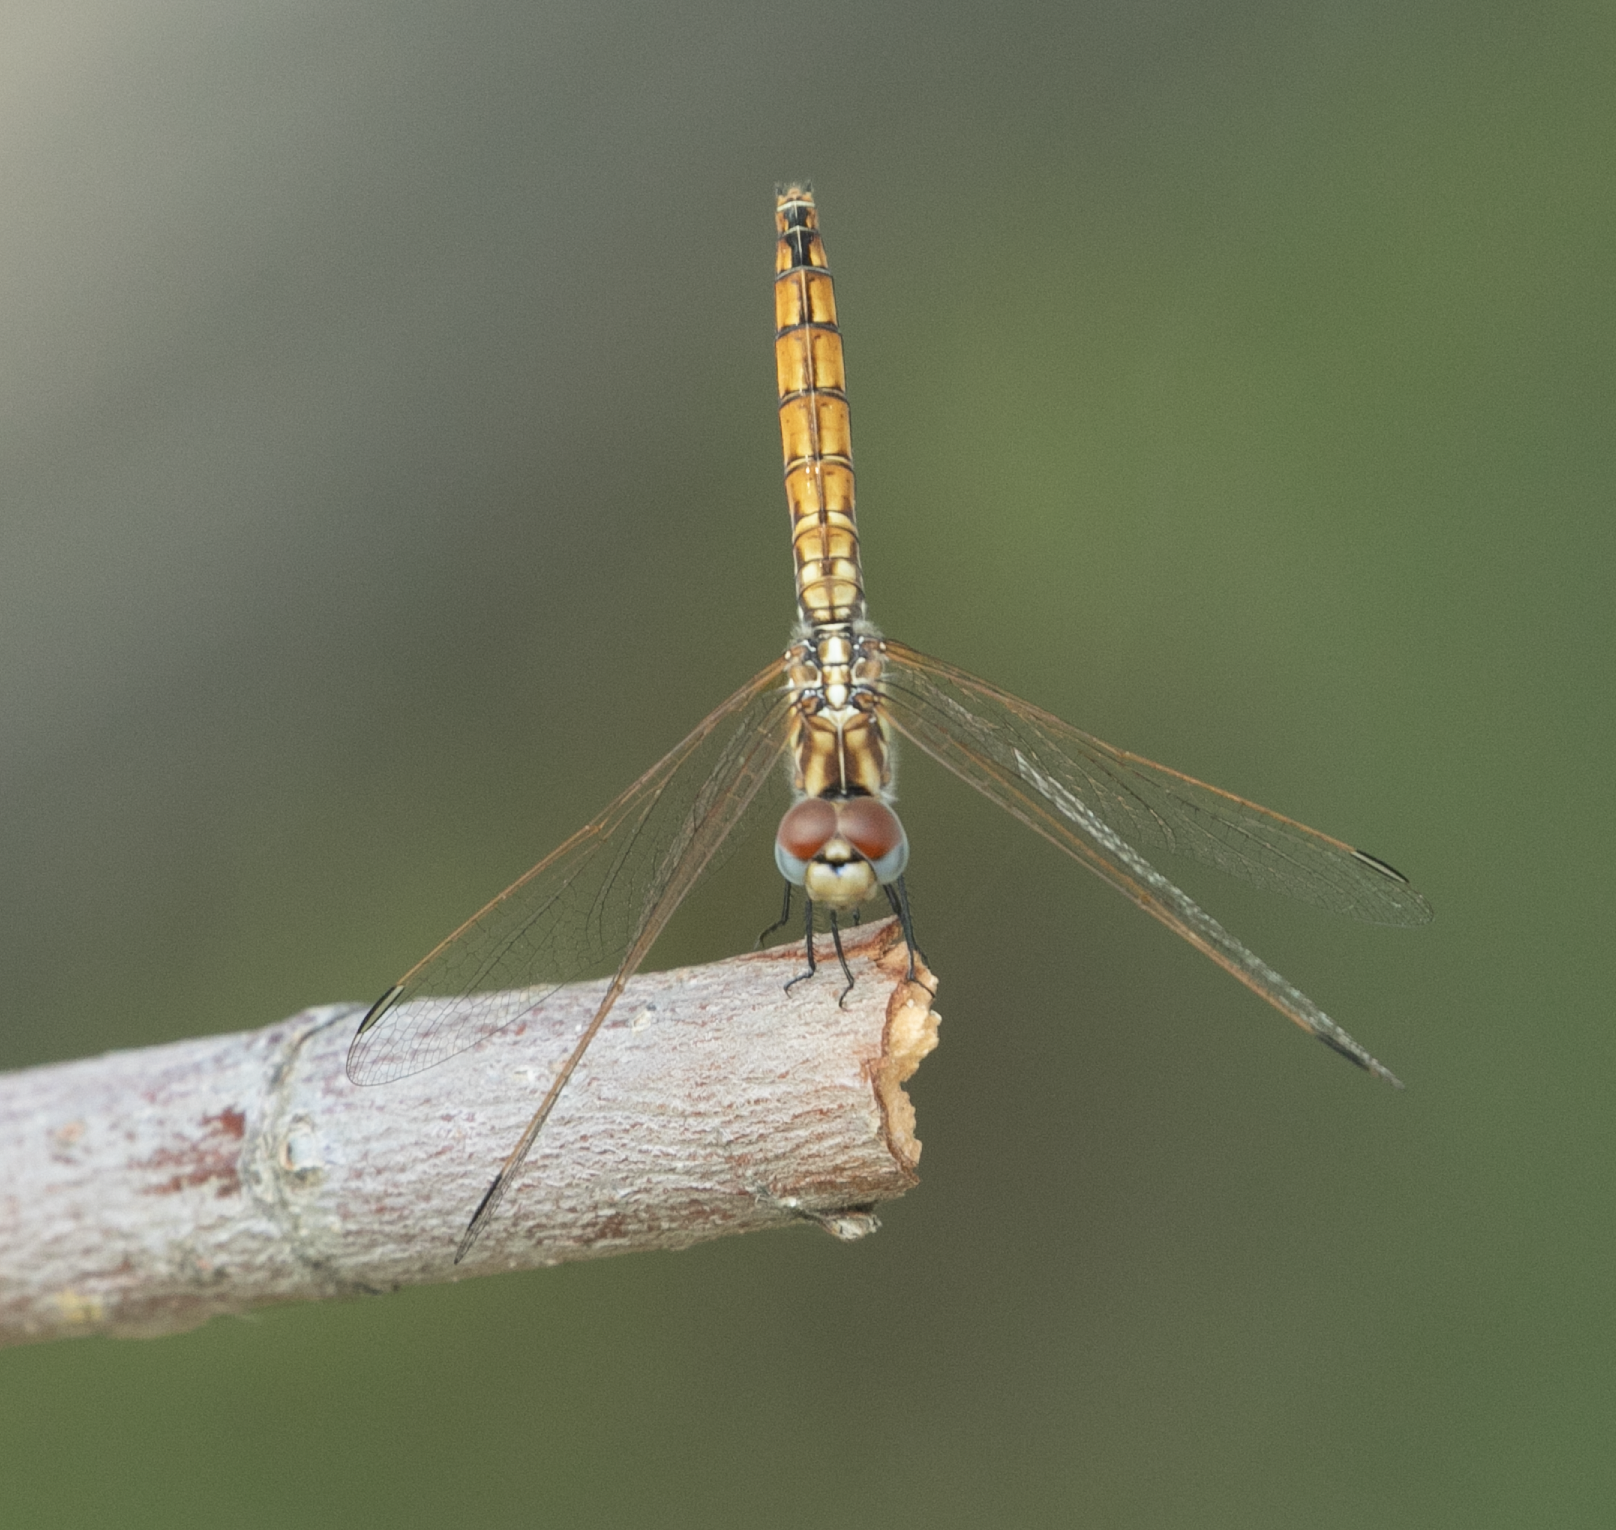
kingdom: Animalia
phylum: Arthropoda
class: Insecta
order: Odonata
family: Libellulidae
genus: Trithemis
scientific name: Trithemis annulata
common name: Violet dropwing
